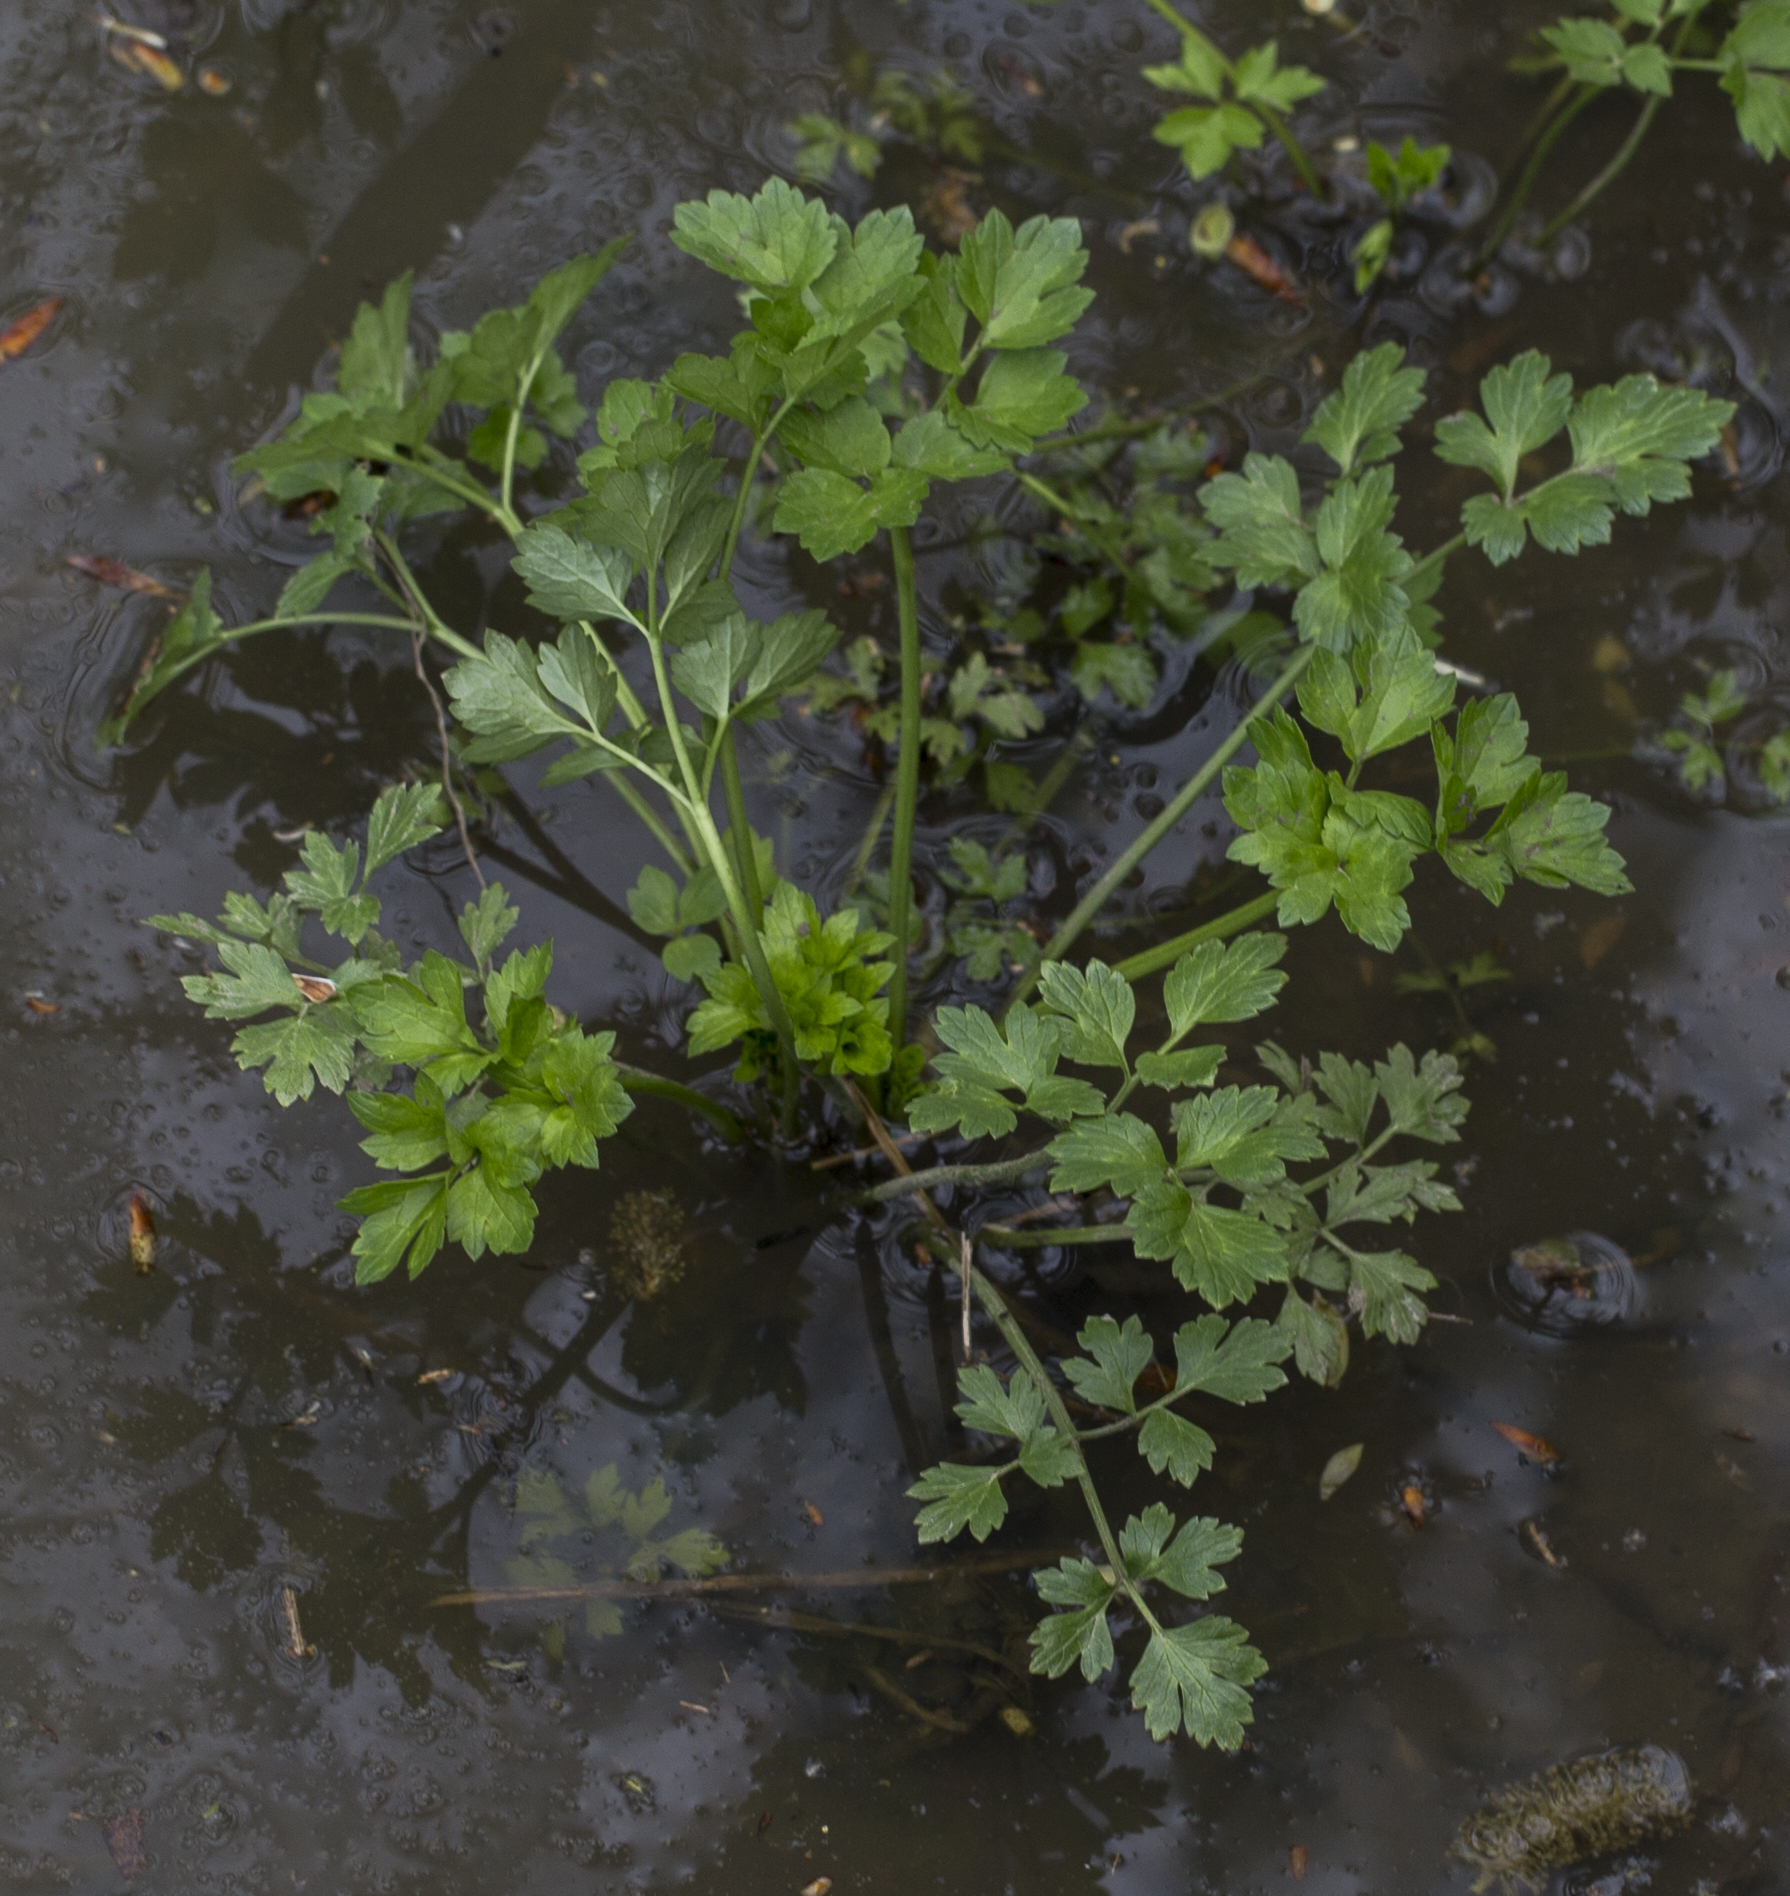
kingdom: Plantae
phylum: Tracheophyta
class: Magnoliopsida
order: Ranunculales
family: Ranunculaceae
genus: Ranunculus
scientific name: Ranunculus repens
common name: Creeping buttercup
